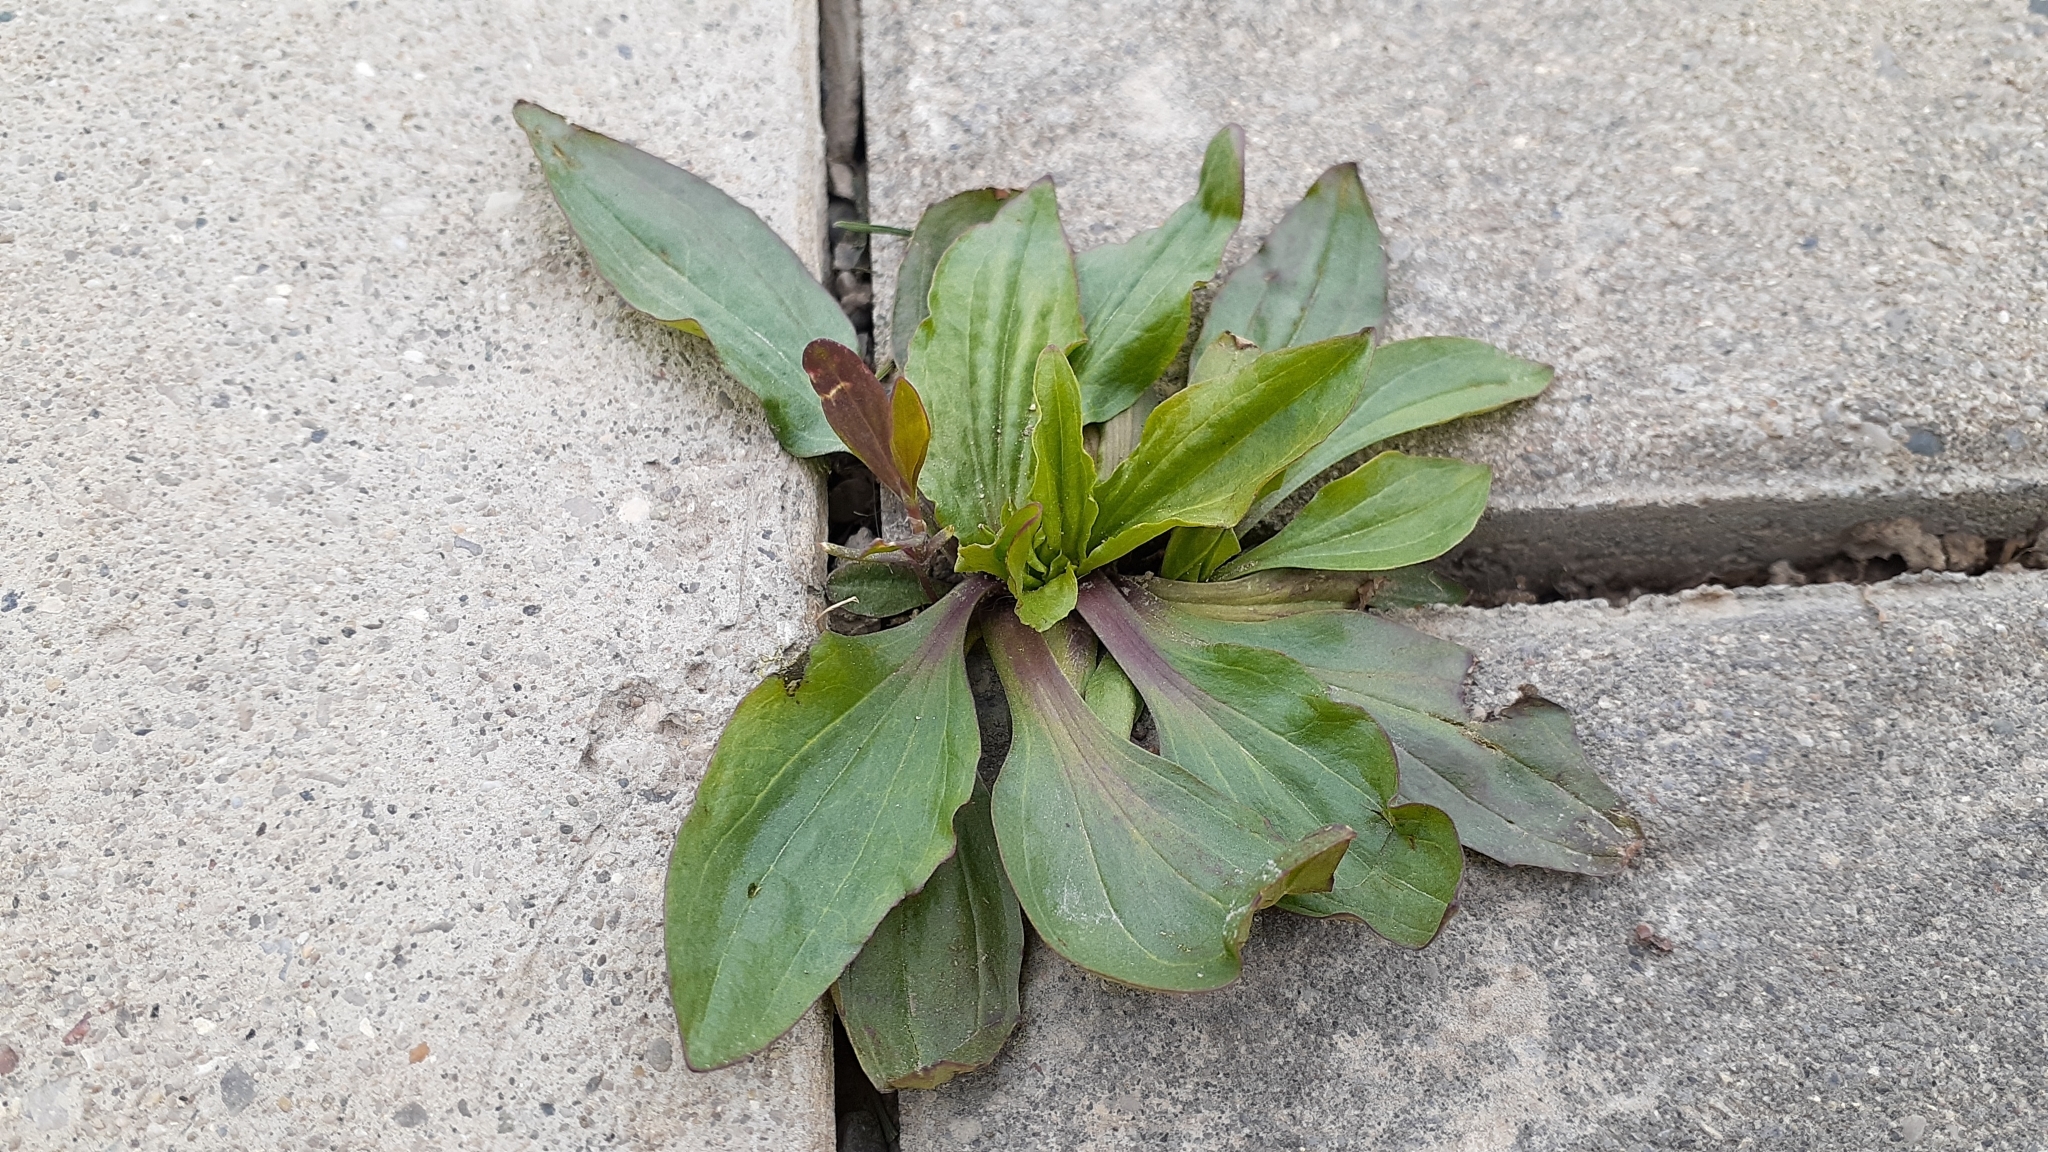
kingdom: Plantae
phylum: Tracheophyta
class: Magnoliopsida
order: Lamiales
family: Plantaginaceae
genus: Plantago
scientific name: Plantago rugelii
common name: American plantain
